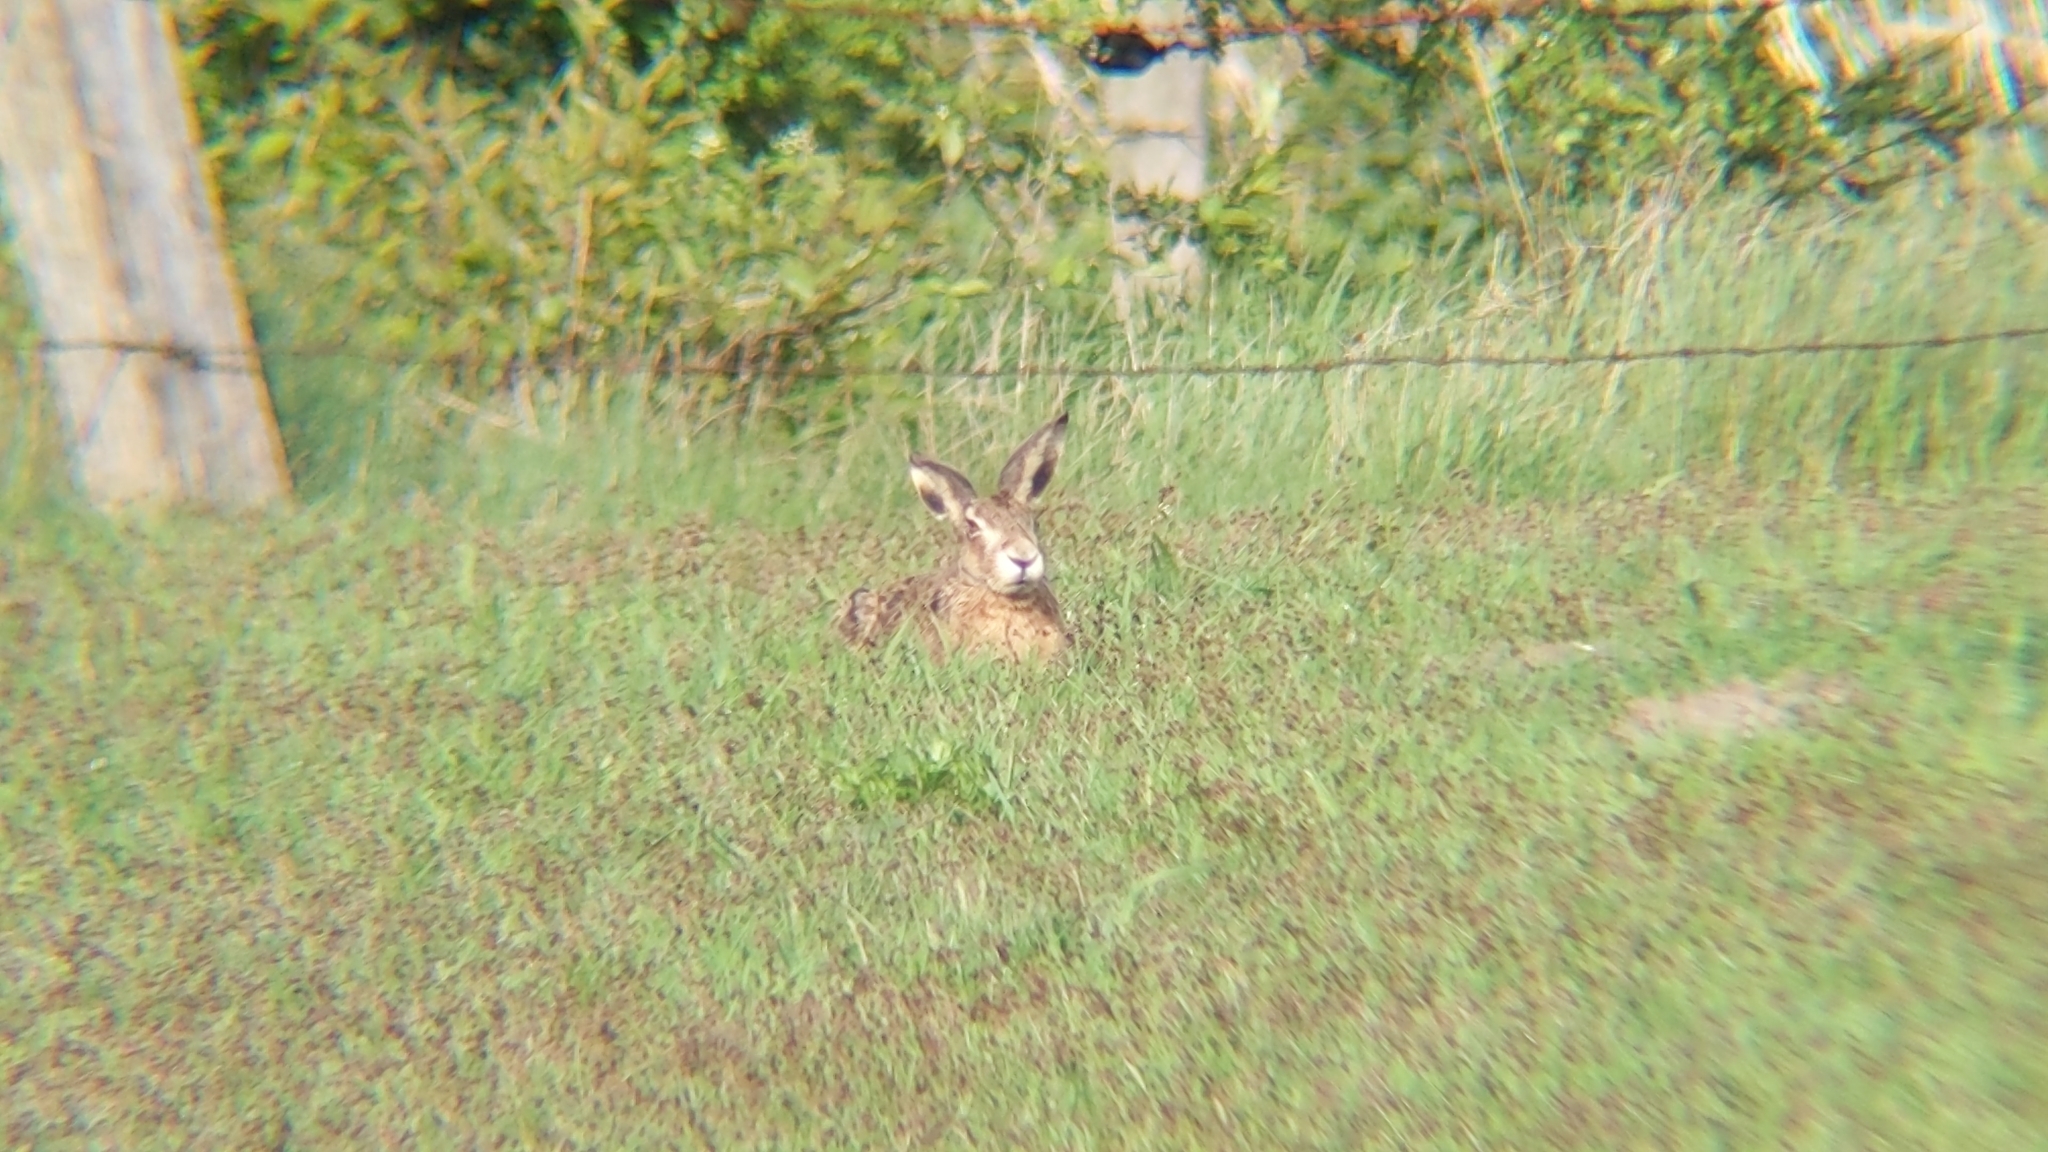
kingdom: Animalia
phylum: Chordata
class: Mammalia
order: Lagomorpha
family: Leporidae
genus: Lepus
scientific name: Lepus europaeus
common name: European hare
